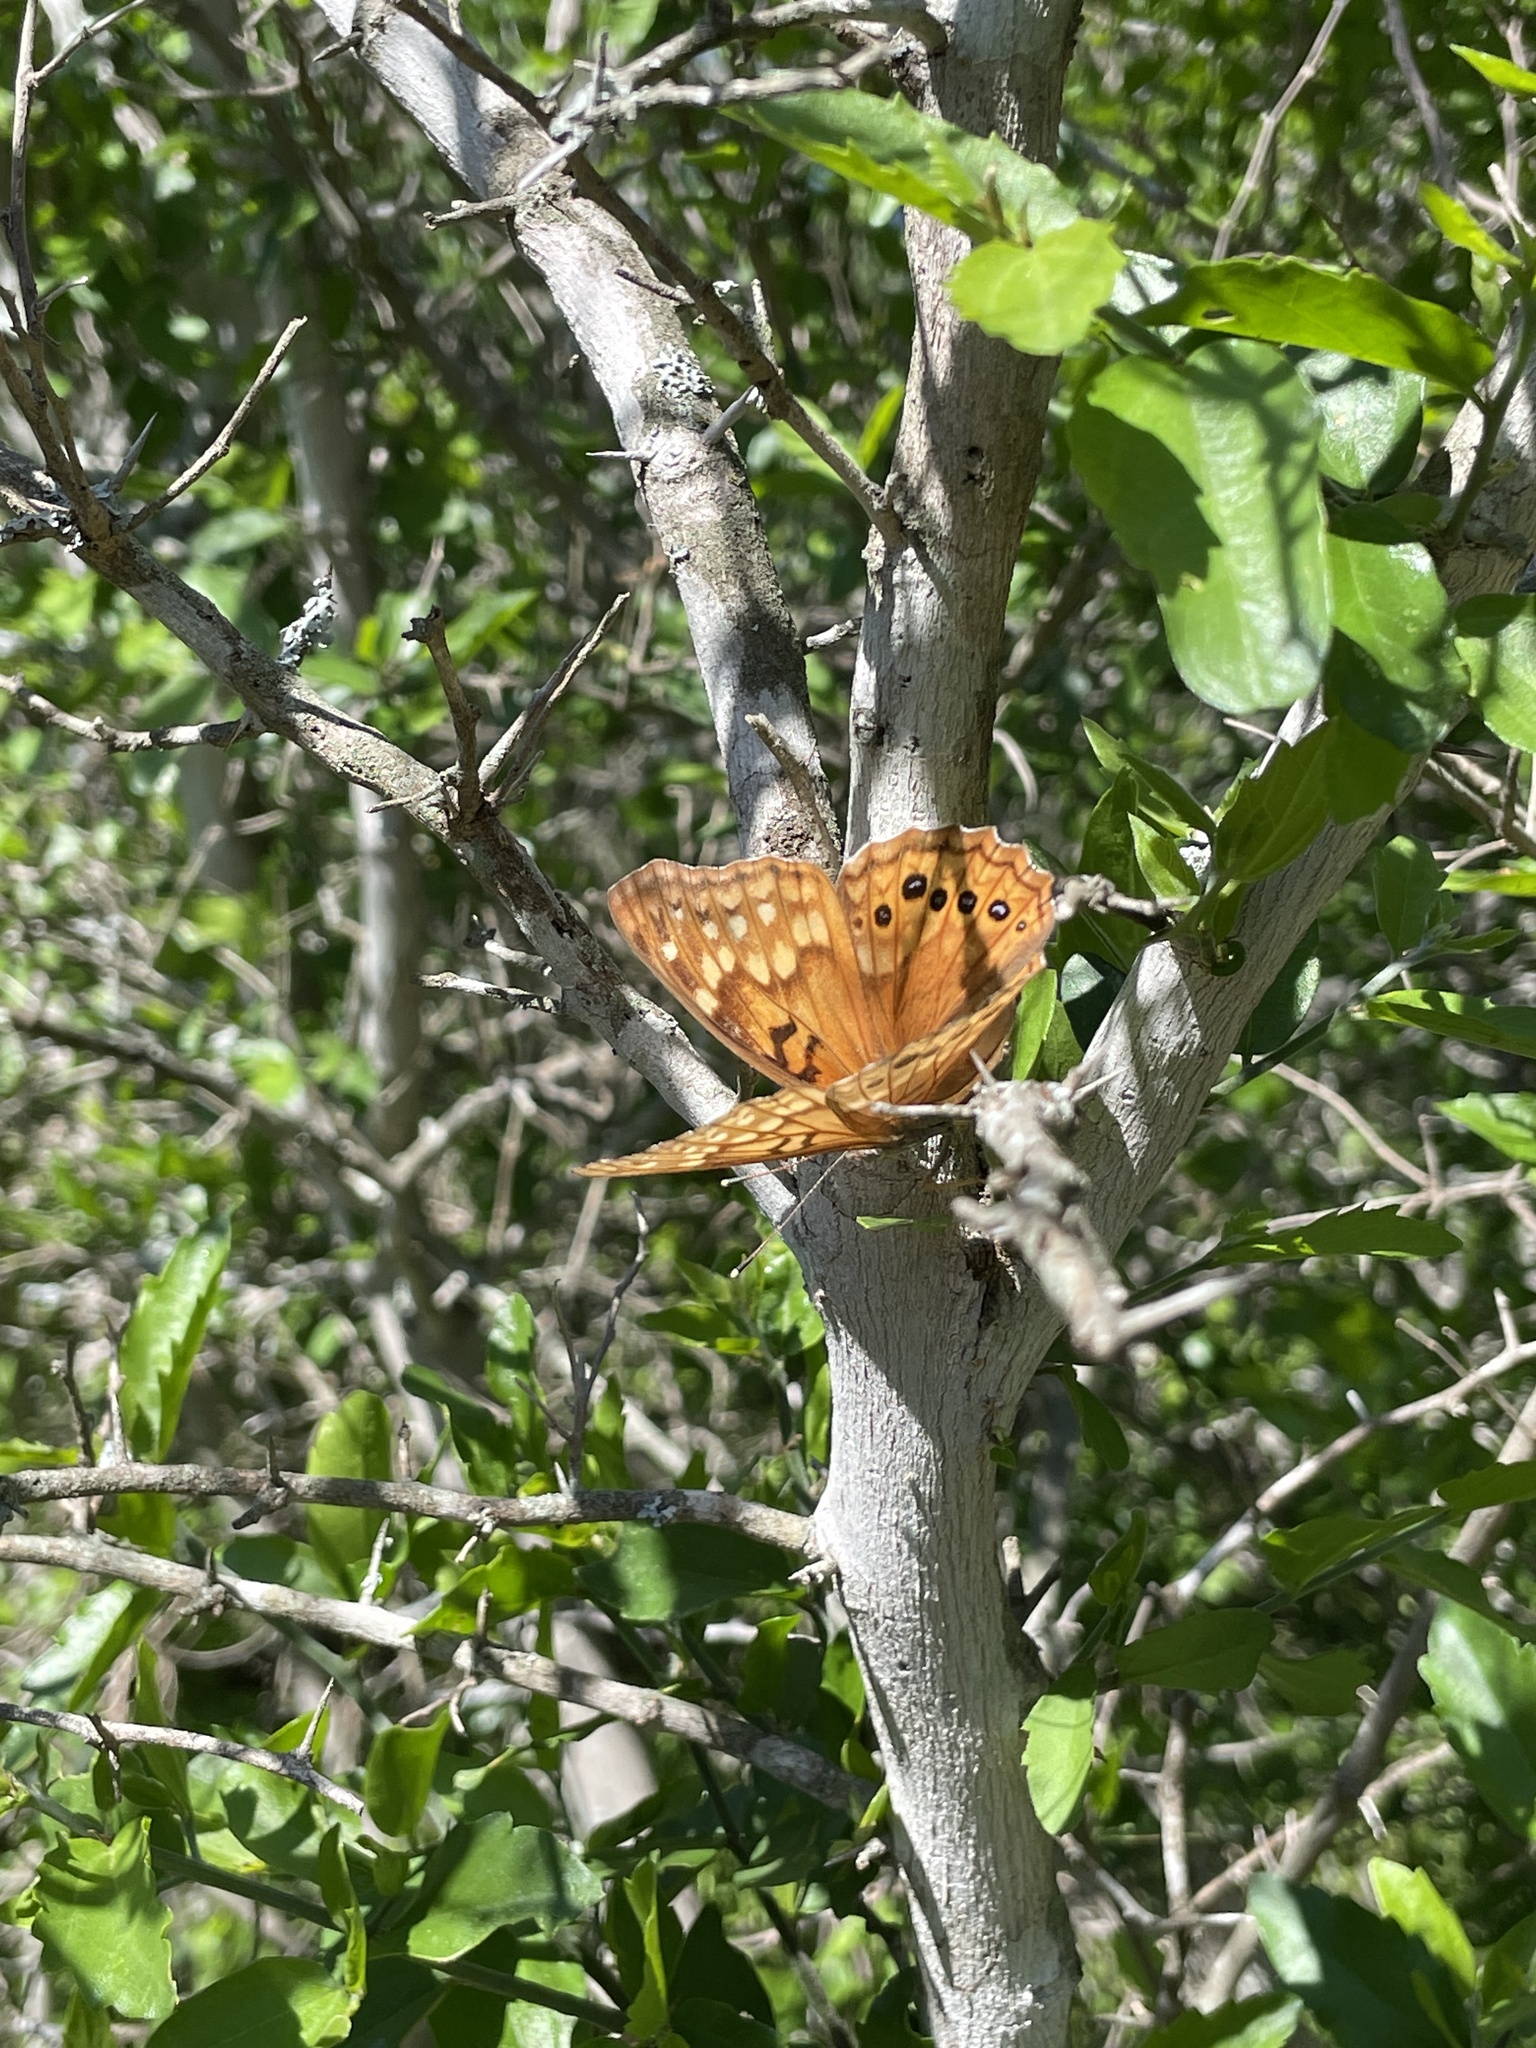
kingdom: Animalia
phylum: Arthropoda
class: Insecta
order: Lepidoptera
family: Nymphalidae
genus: Asterocampa
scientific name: Asterocampa clyton
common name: Tawny emperor
